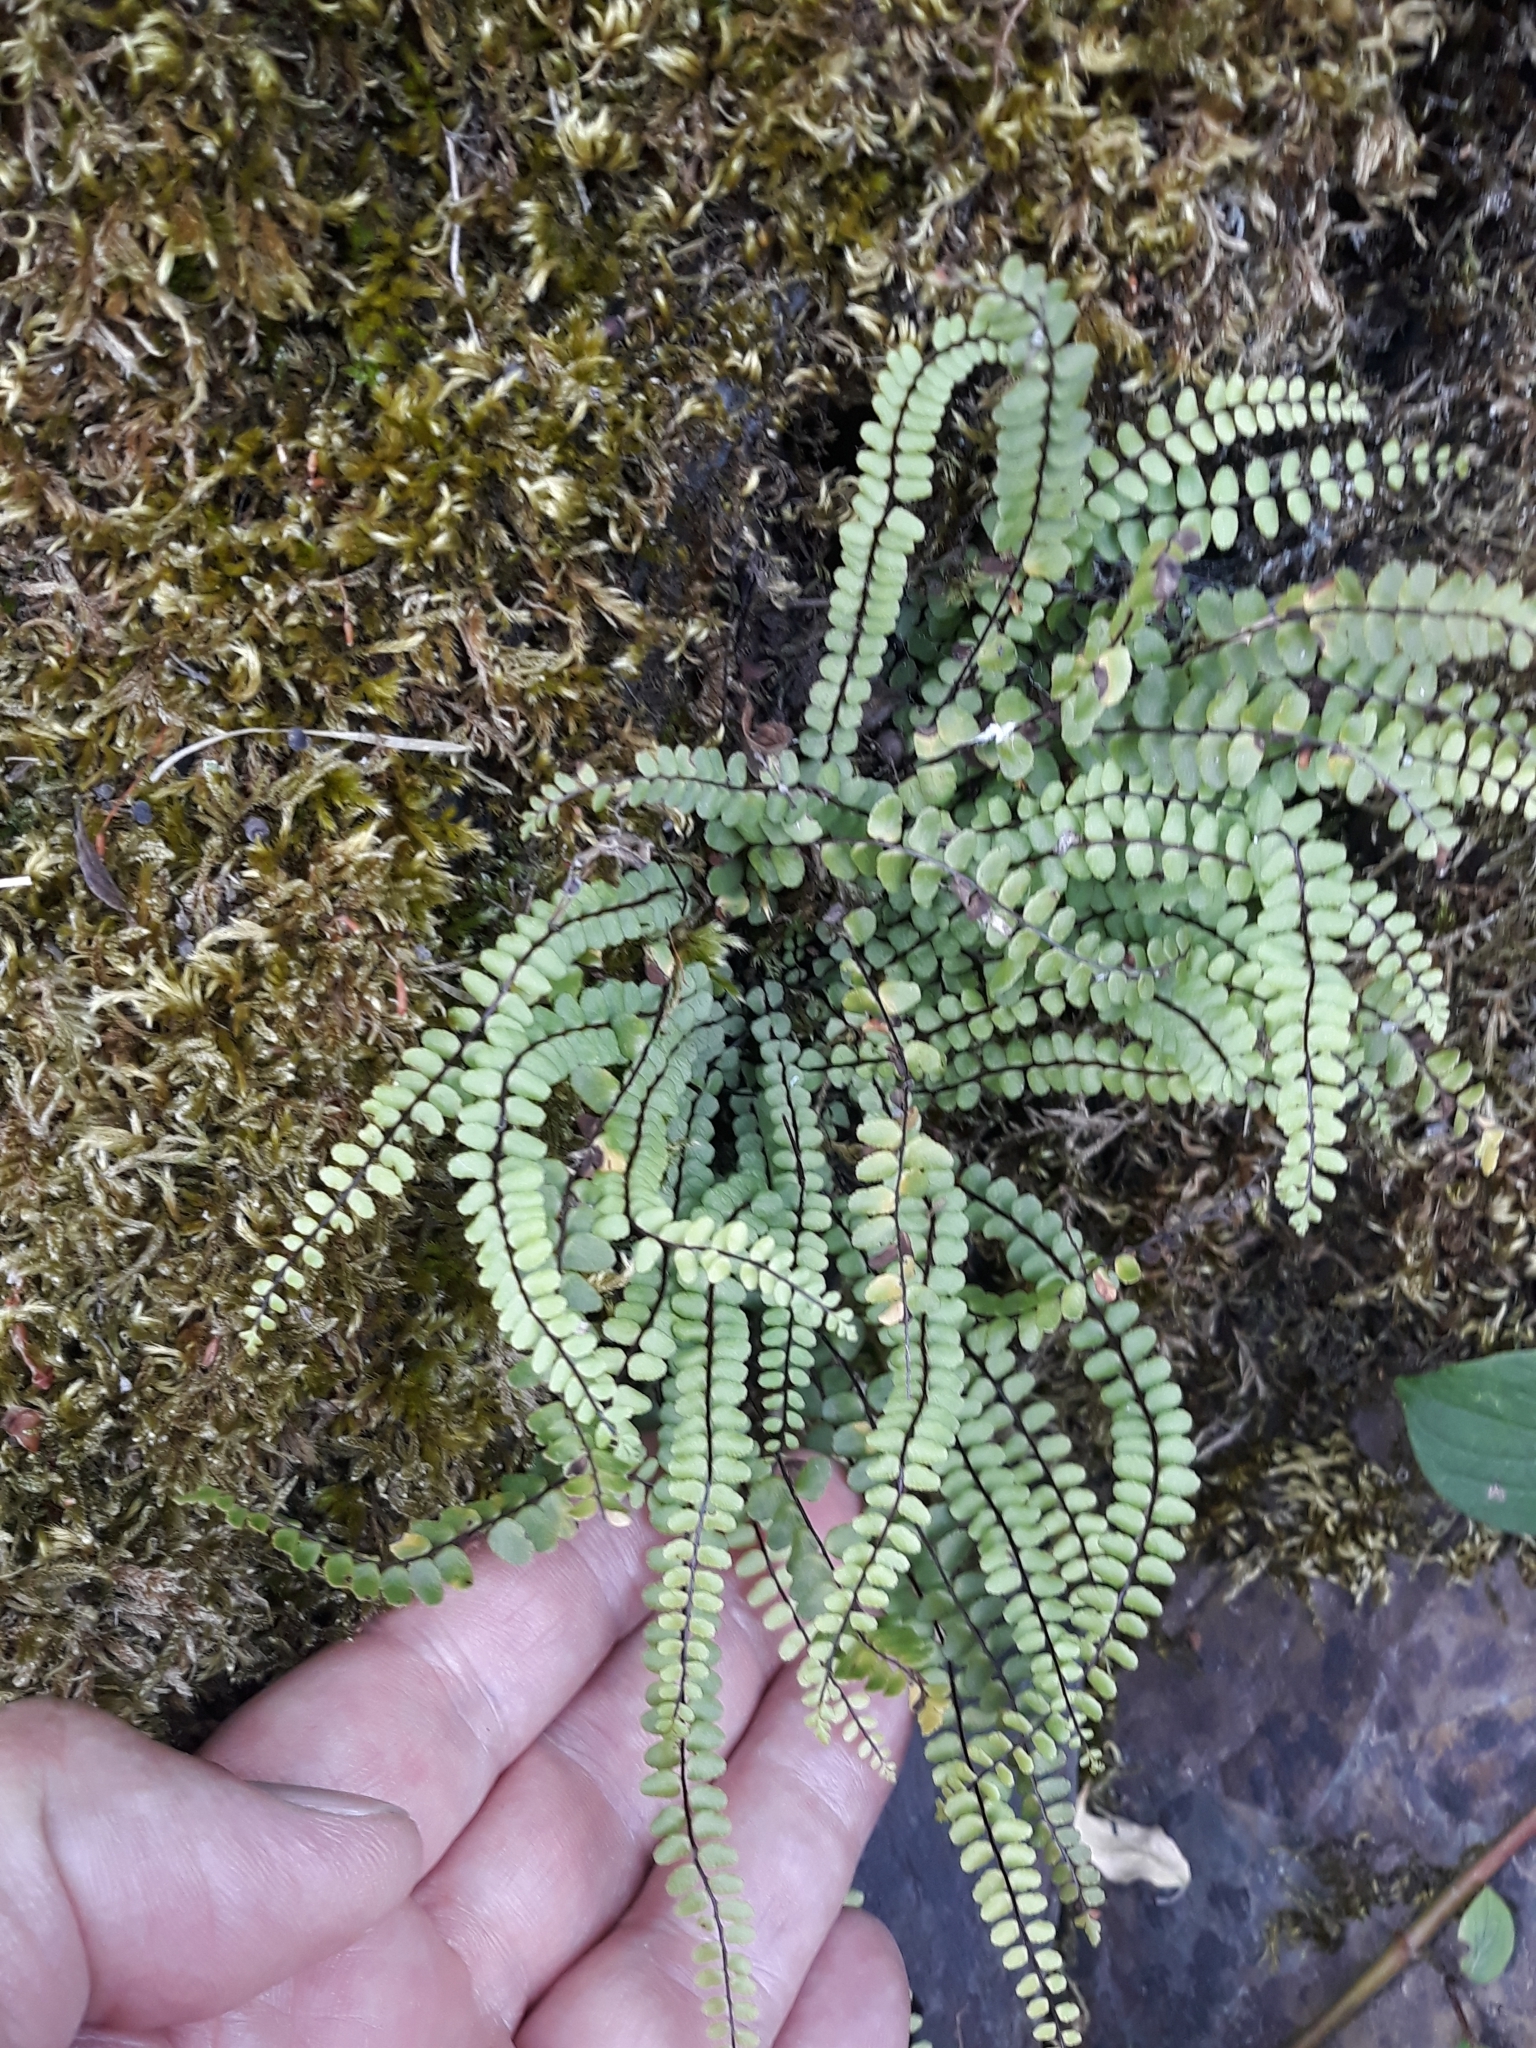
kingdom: Plantae
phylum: Tracheophyta
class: Polypodiopsida
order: Polypodiales
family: Aspleniaceae
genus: Asplenium
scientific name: Asplenium trichomanes
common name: Maidenhair spleenwort
